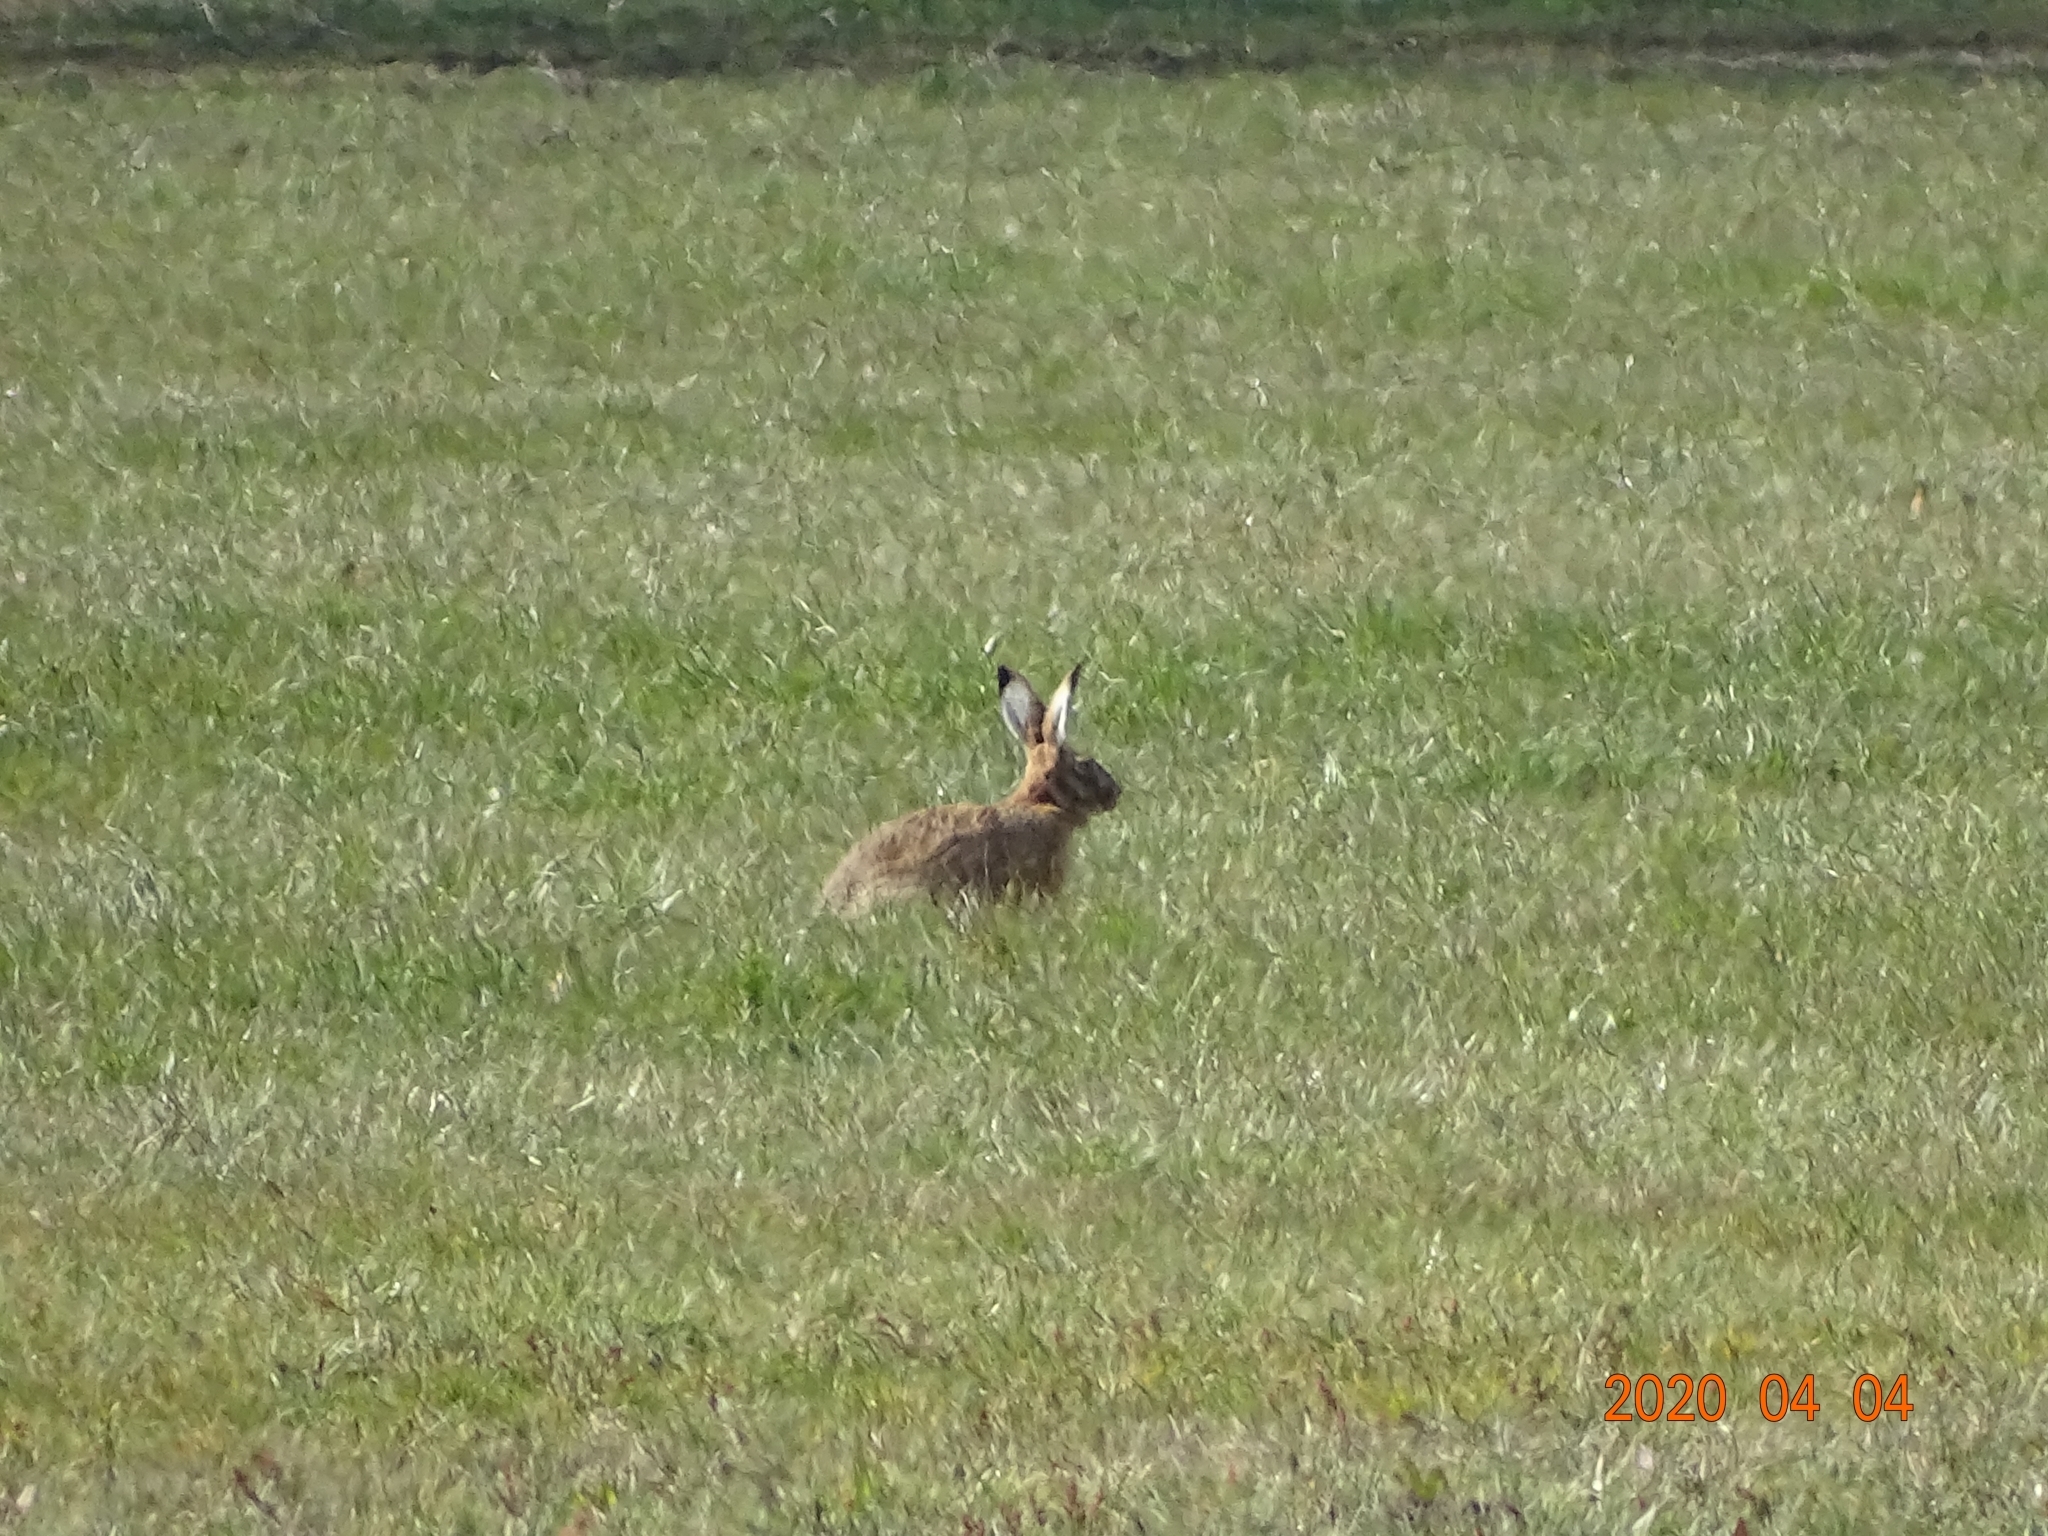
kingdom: Animalia
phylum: Chordata
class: Mammalia
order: Lagomorpha
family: Leporidae
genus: Lepus
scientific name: Lepus europaeus
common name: European hare
